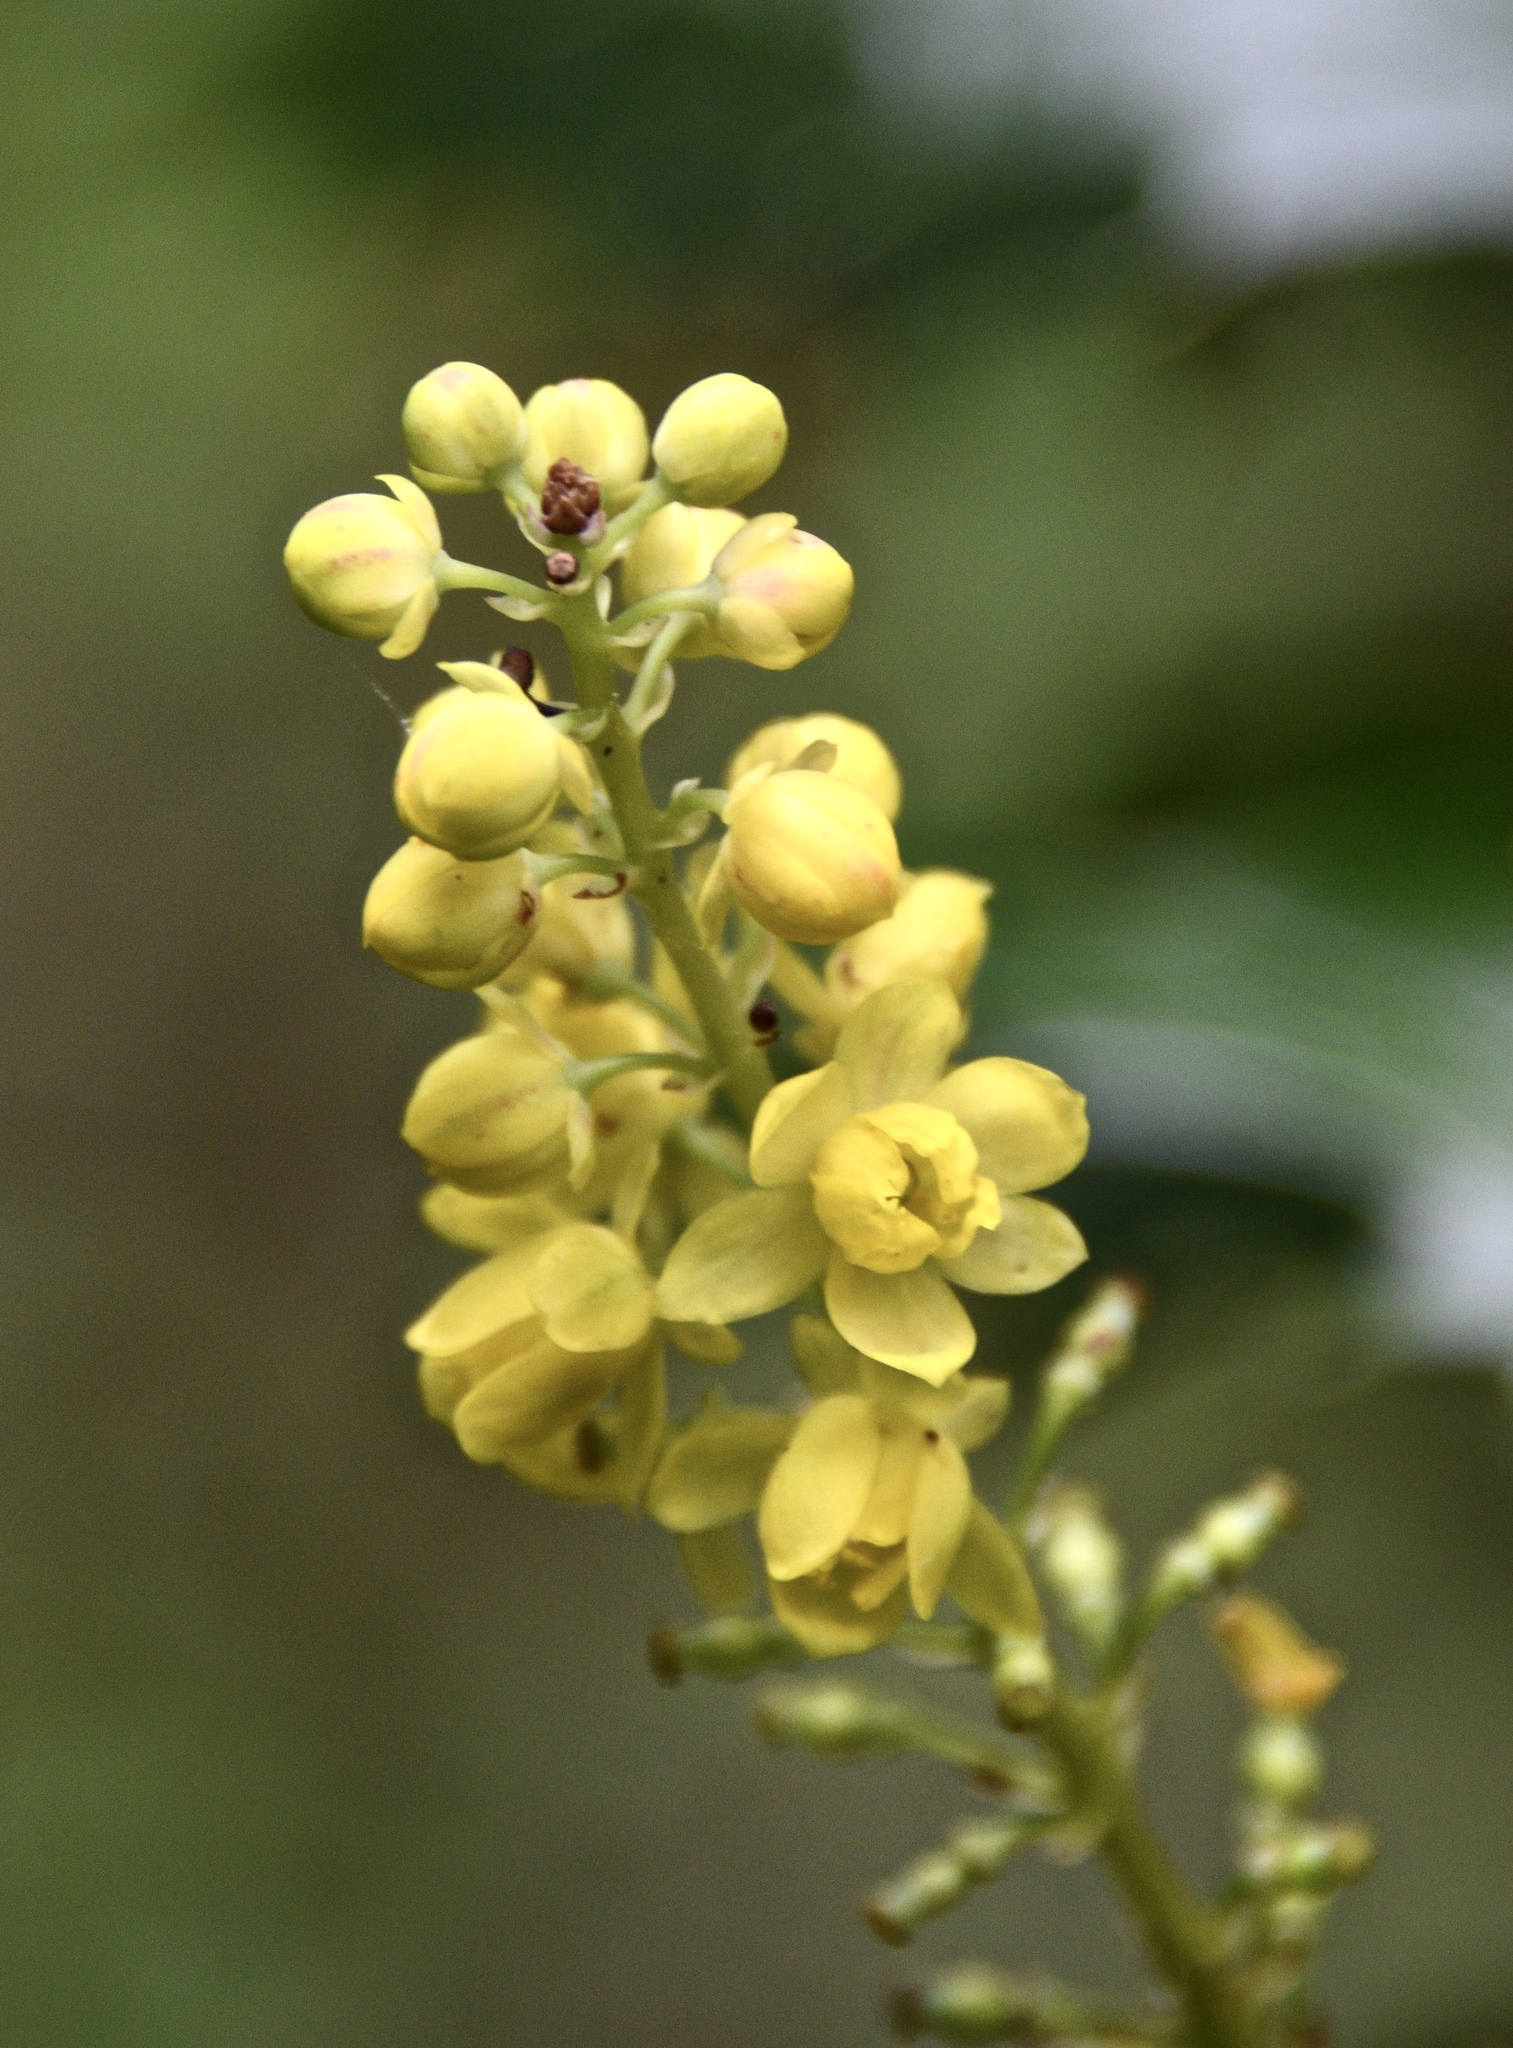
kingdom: Plantae
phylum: Tracheophyta
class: Magnoliopsida
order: Ranunculales
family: Berberidaceae
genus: Mahonia
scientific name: Mahonia nervosa
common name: Cascade oregon-grape
